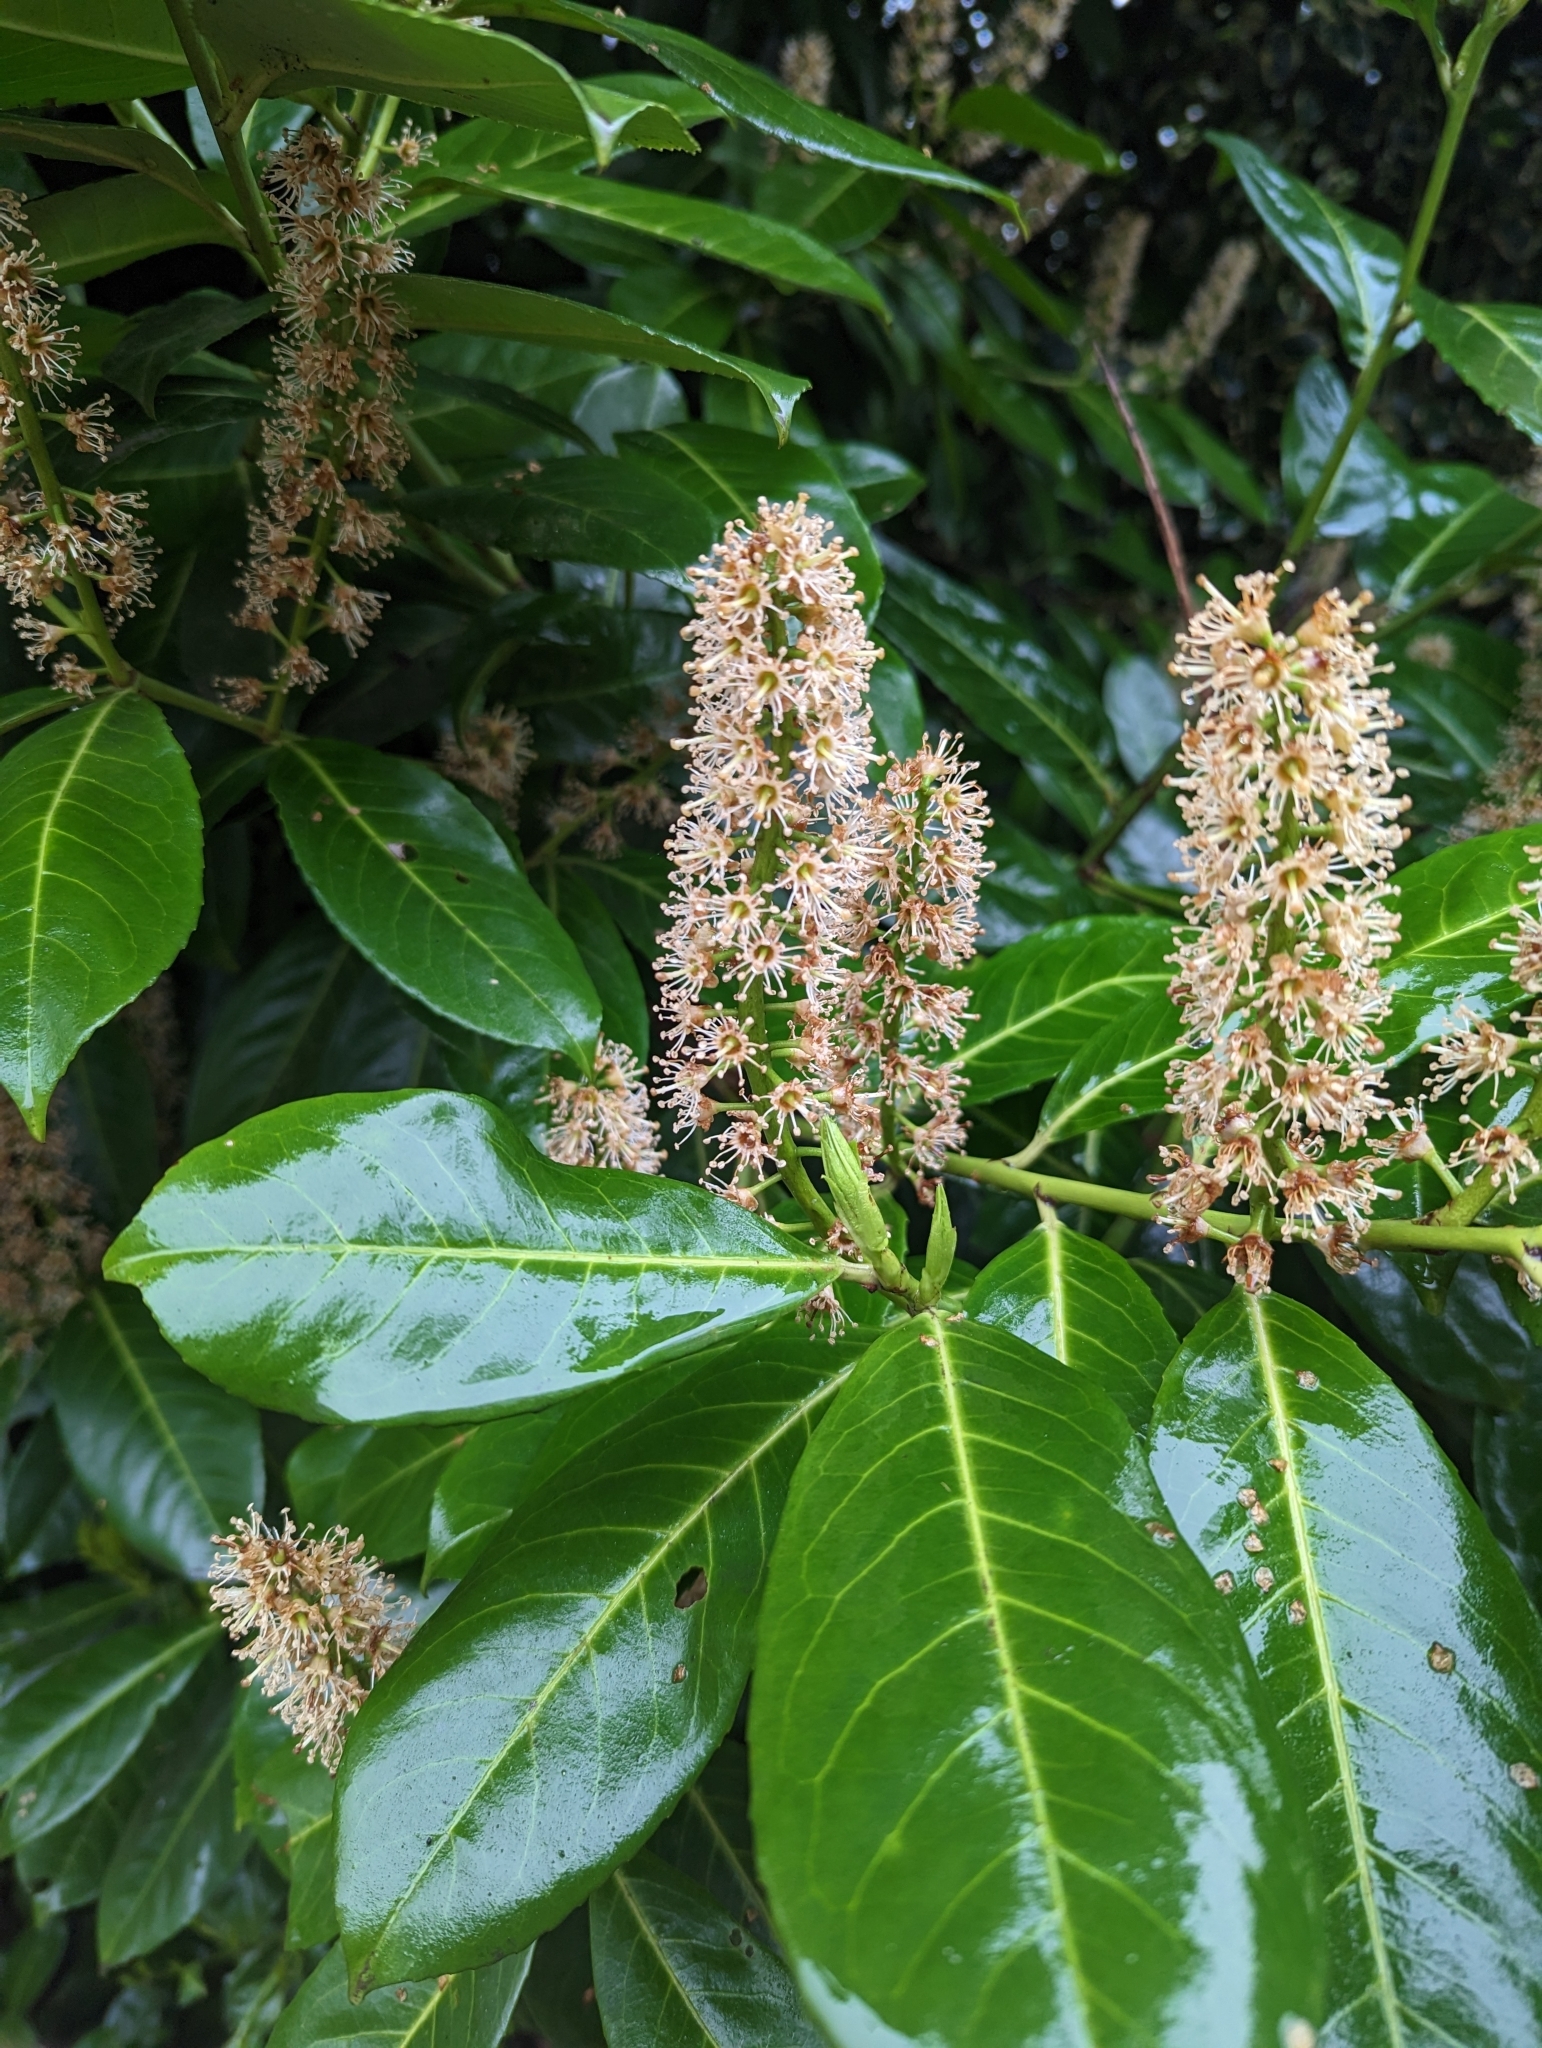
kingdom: Plantae
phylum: Tracheophyta
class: Magnoliopsida
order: Rosales
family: Rosaceae
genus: Prunus
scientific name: Prunus laurocerasus
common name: Cherry laurel
